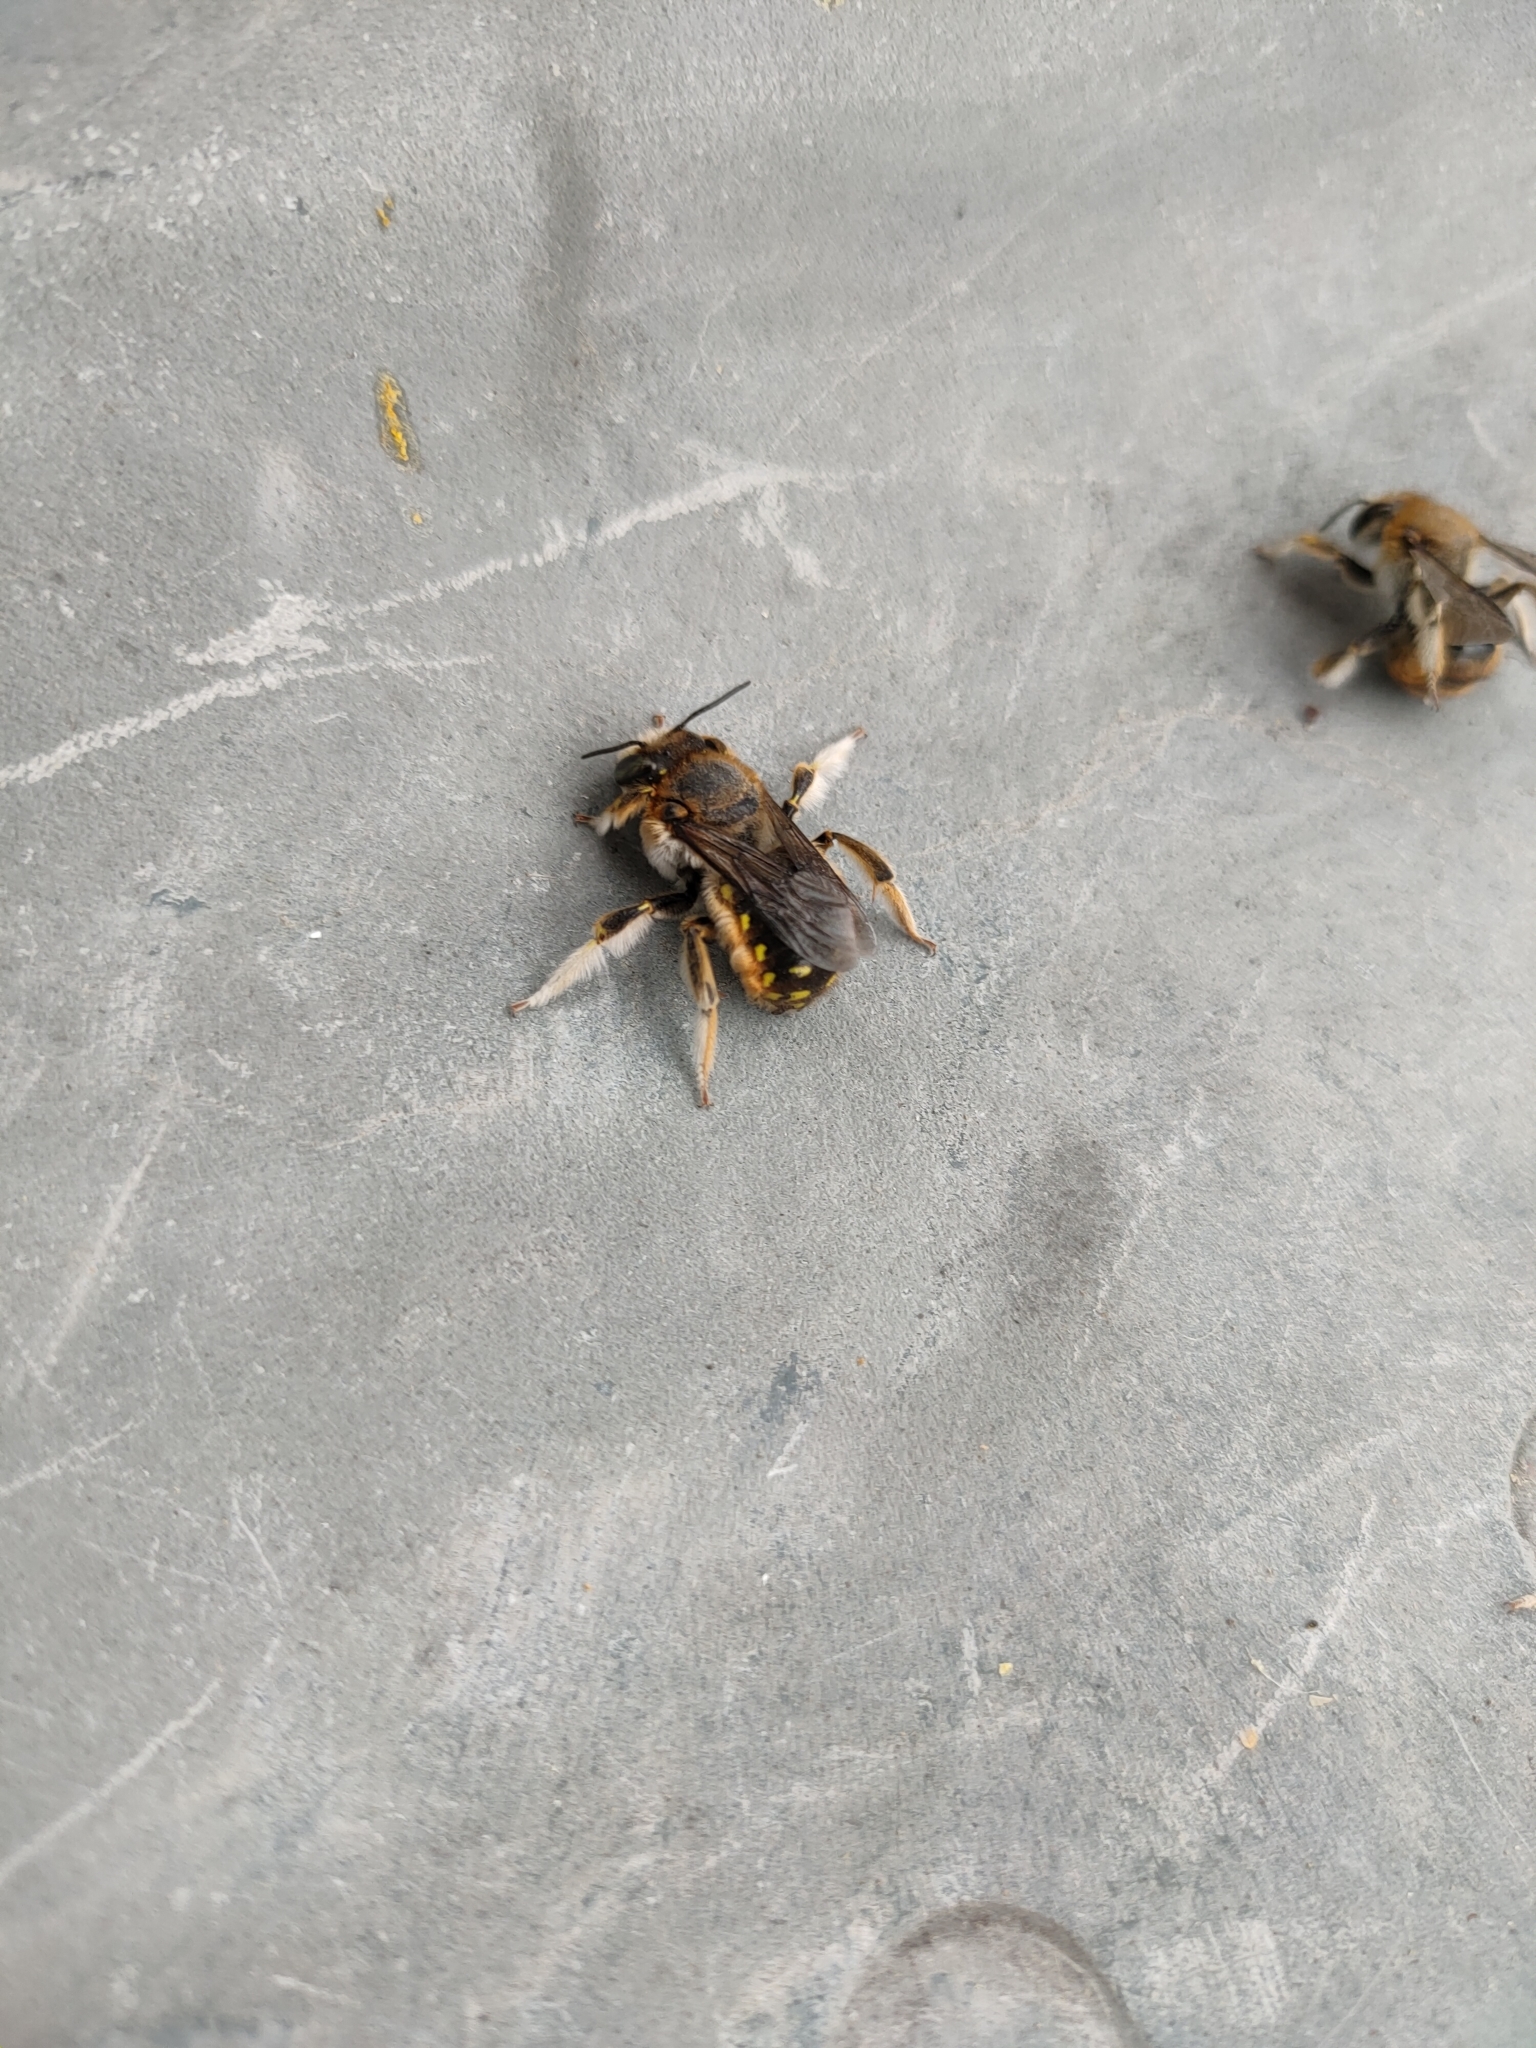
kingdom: Animalia
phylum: Arthropoda
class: Insecta
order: Hymenoptera
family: Megachilidae
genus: Anthidium
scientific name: Anthidium manicatum
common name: Wool carder bee
